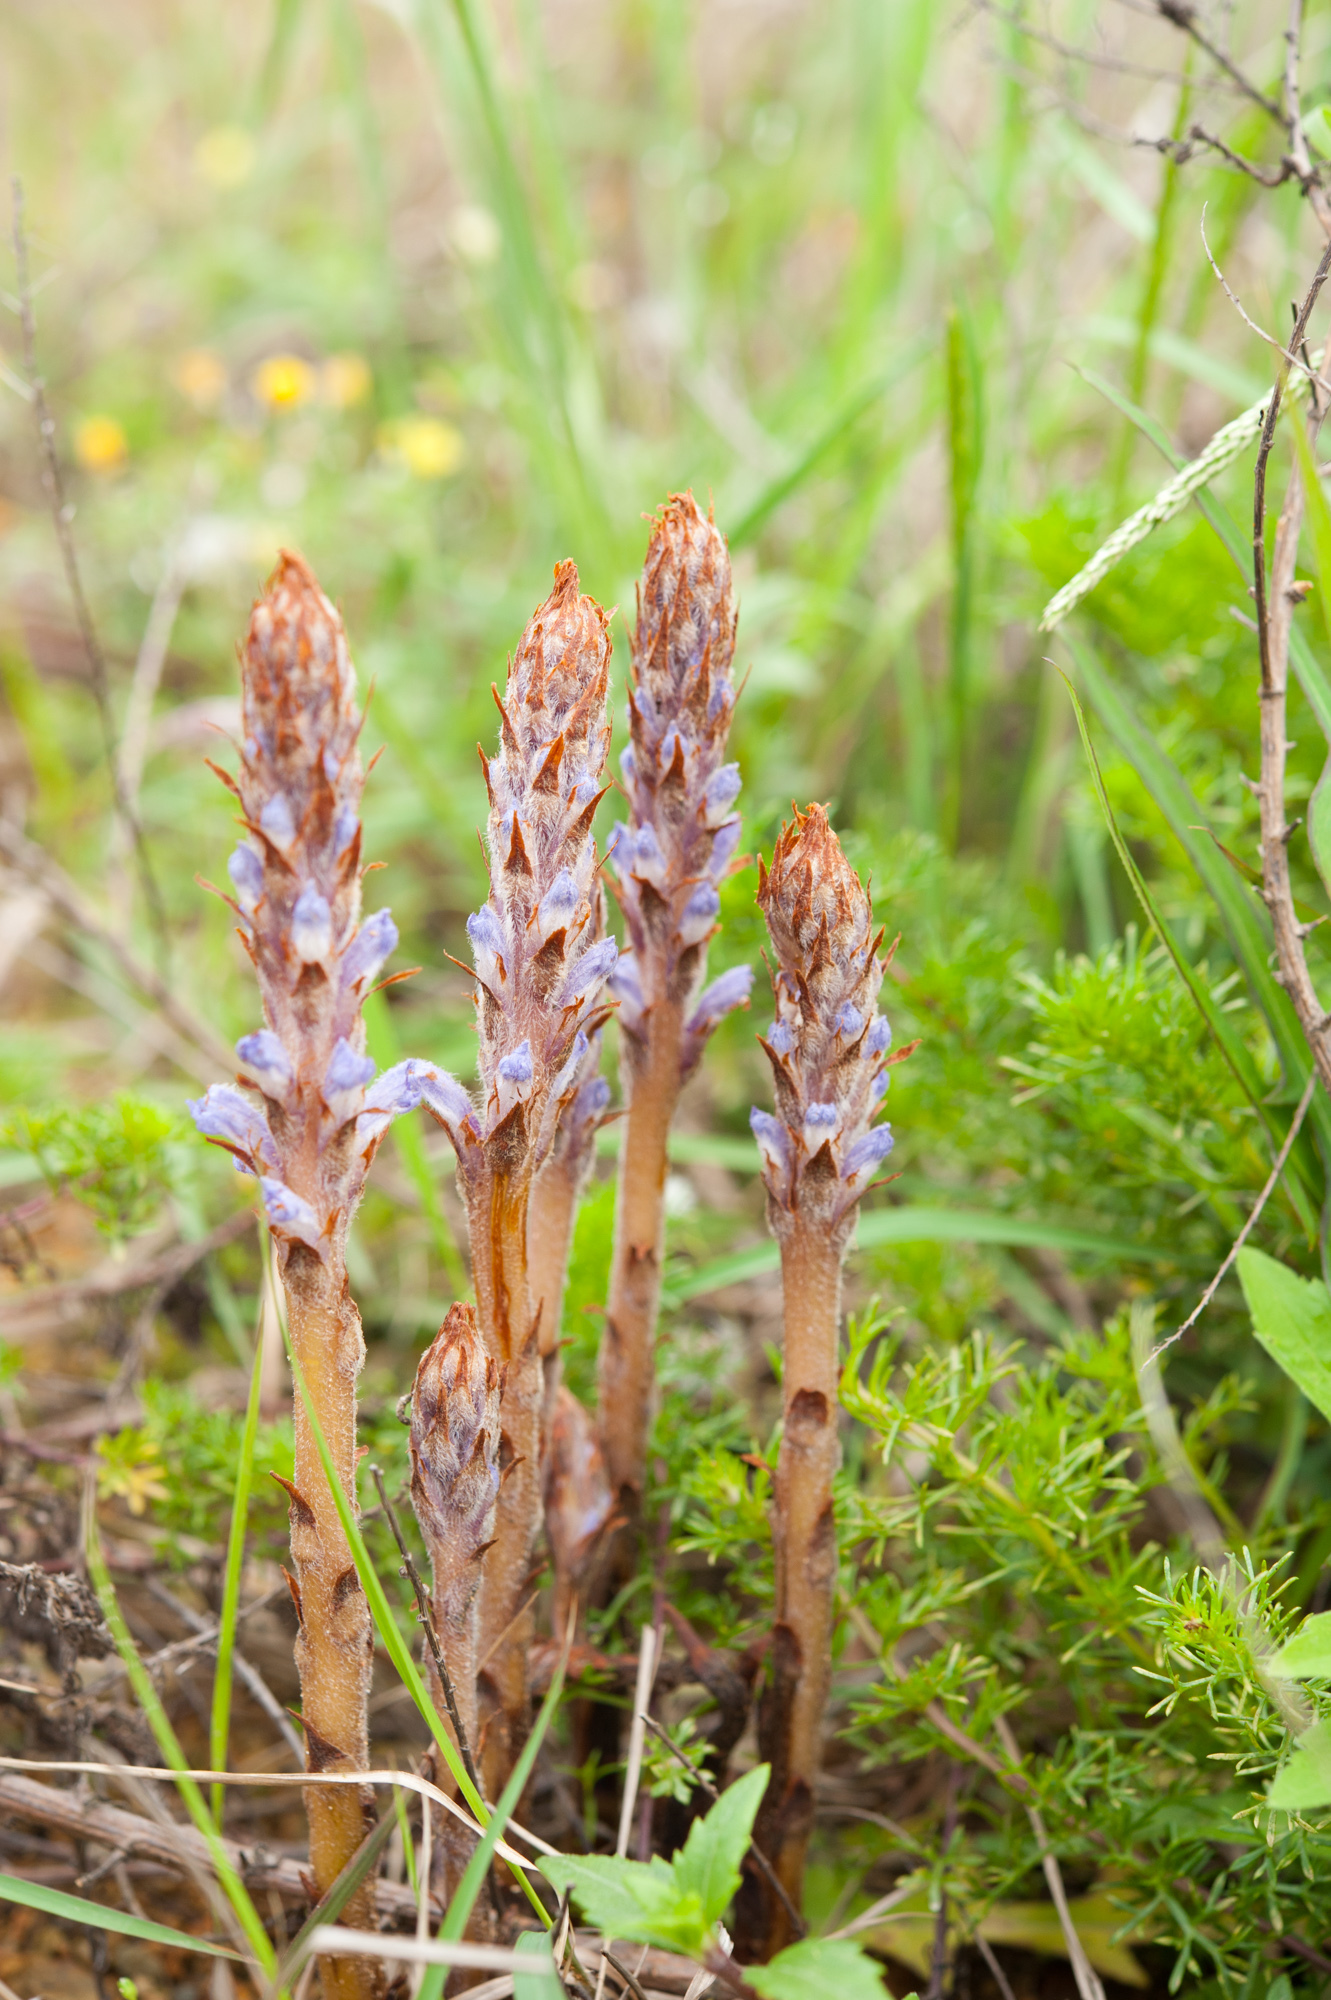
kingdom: Plantae
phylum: Tracheophyta
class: Magnoliopsida
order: Lamiales
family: Orobanchaceae
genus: Orobanche
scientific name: Orobanche coerulescens
